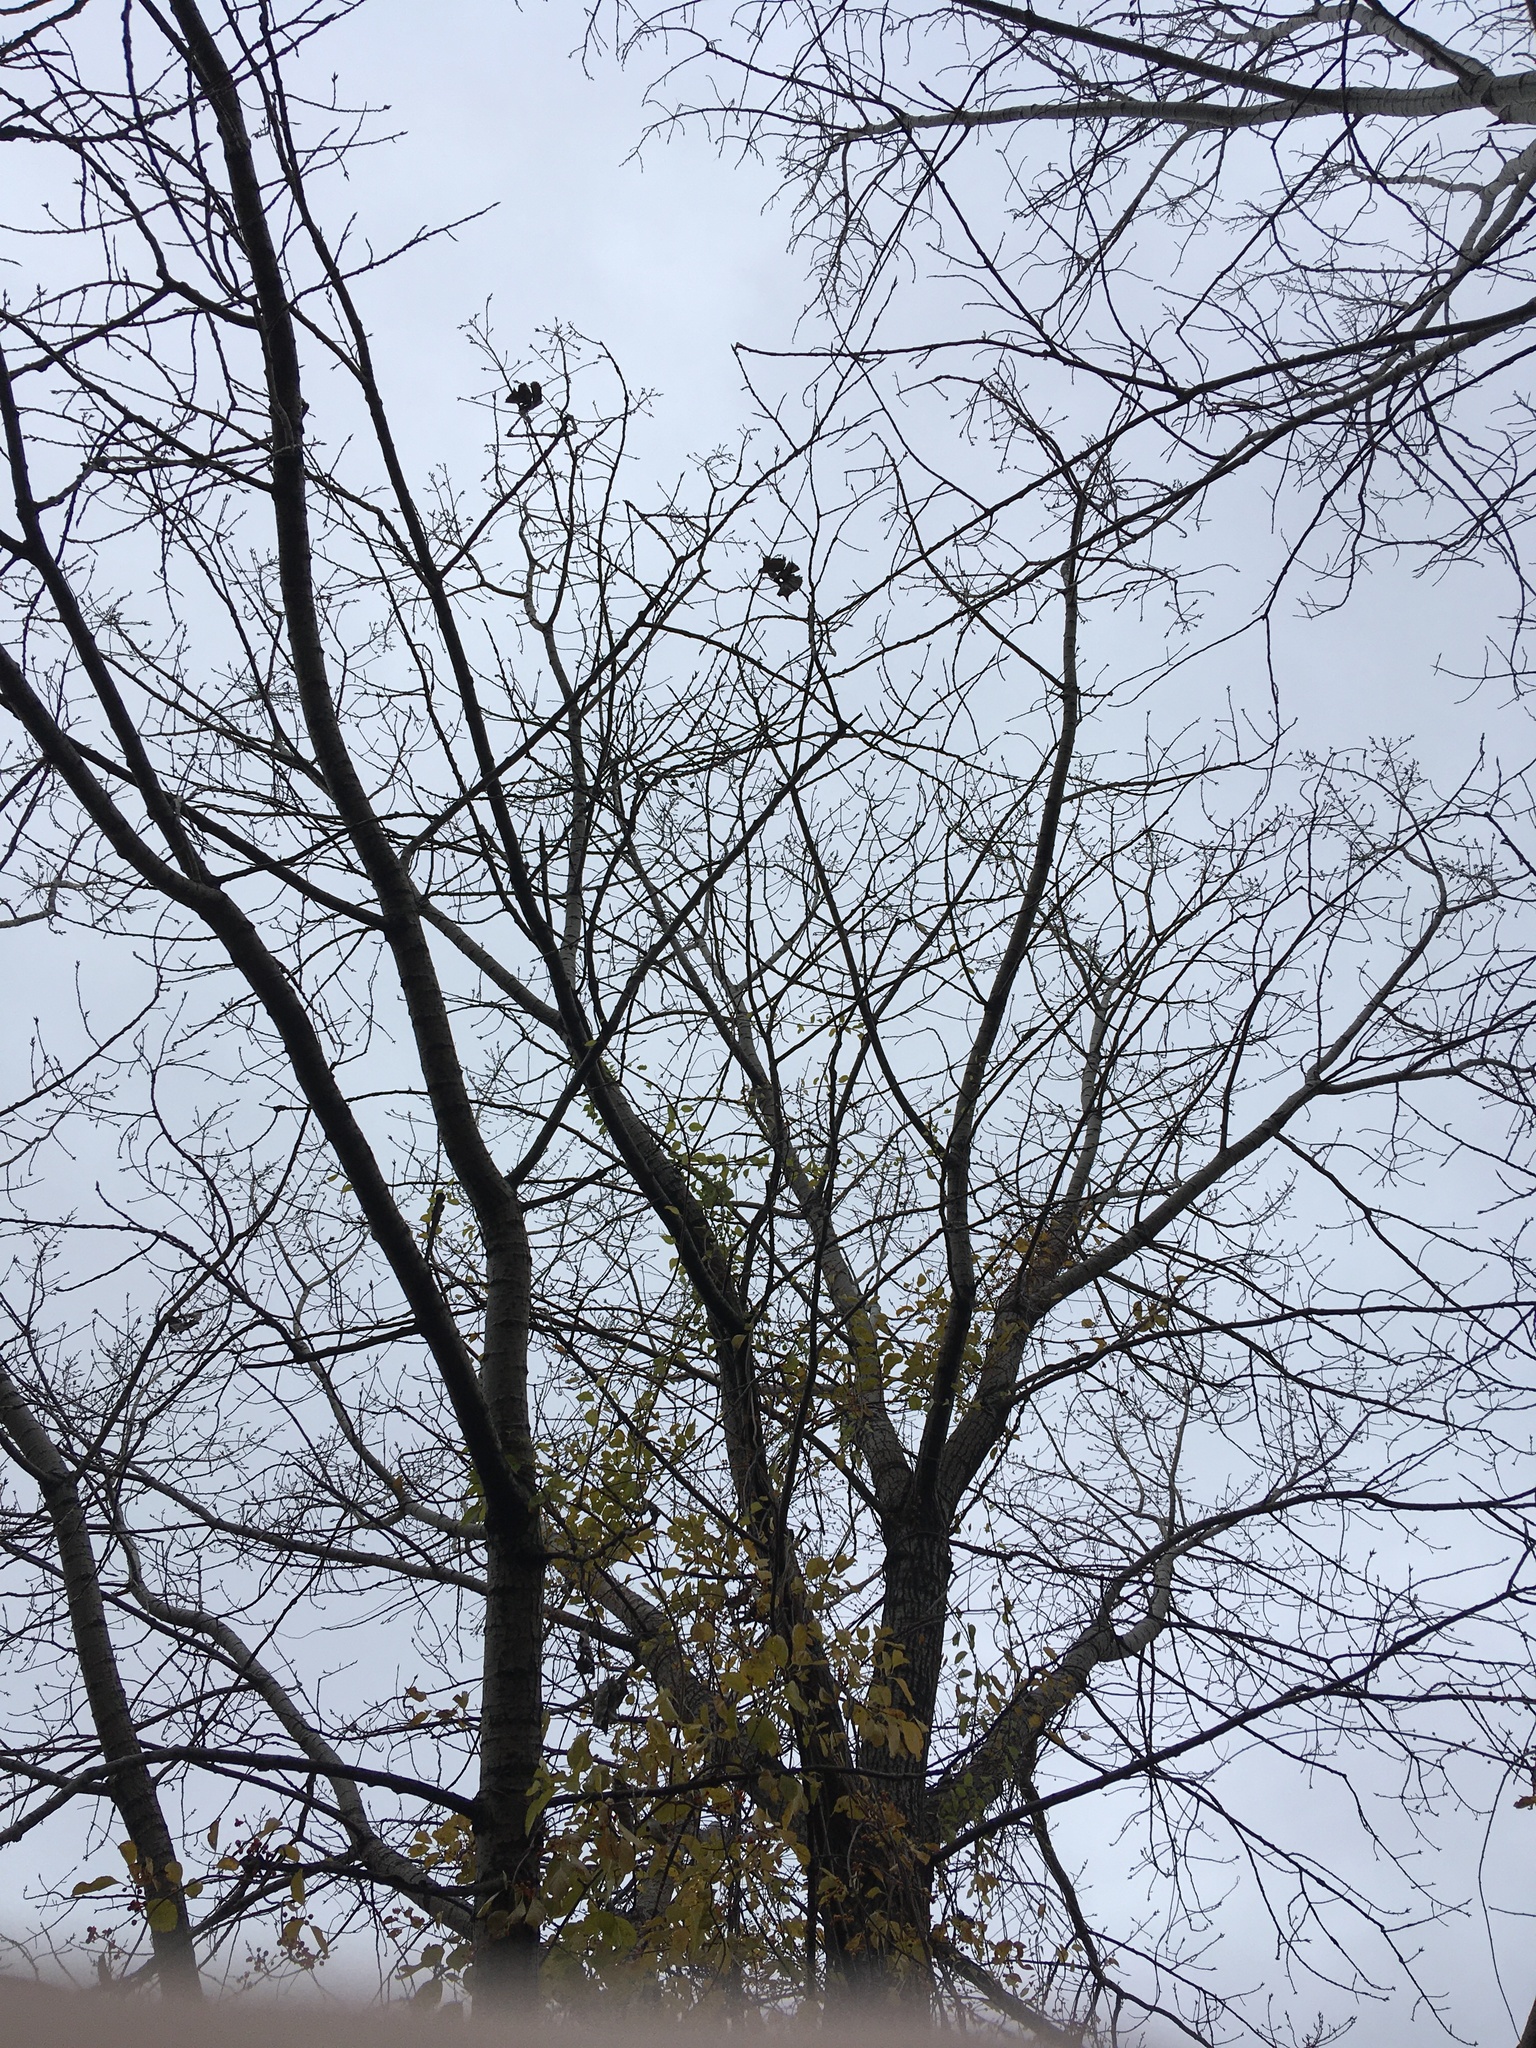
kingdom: Plantae
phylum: Tracheophyta
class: Magnoliopsida
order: Malpighiales
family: Salicaceae
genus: Populus
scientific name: Populus deltoides
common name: Eastern cottonwood
